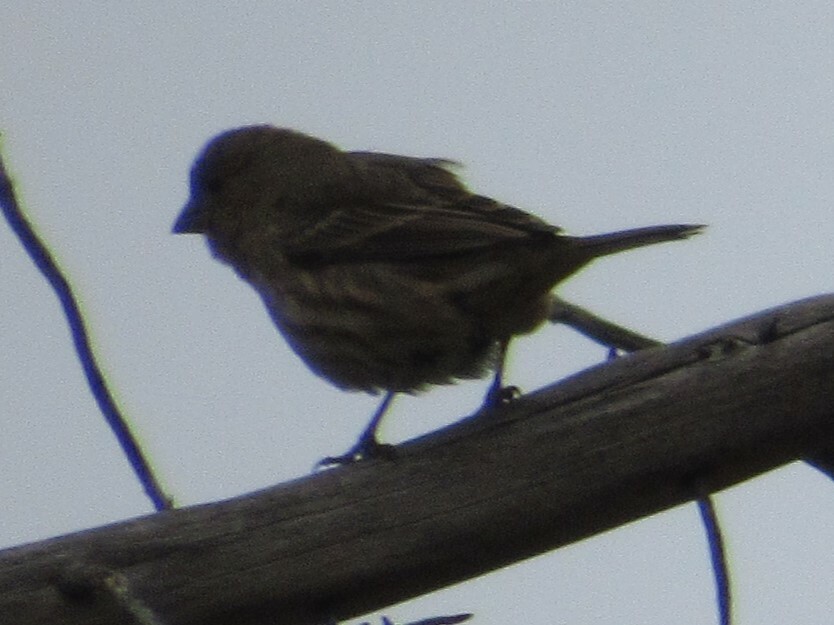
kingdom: Animalia
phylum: Chordata
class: Aves
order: Passeriformes
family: Fringillidae
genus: Haemorhous
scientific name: Haemorhous mexicanus
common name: House finch
